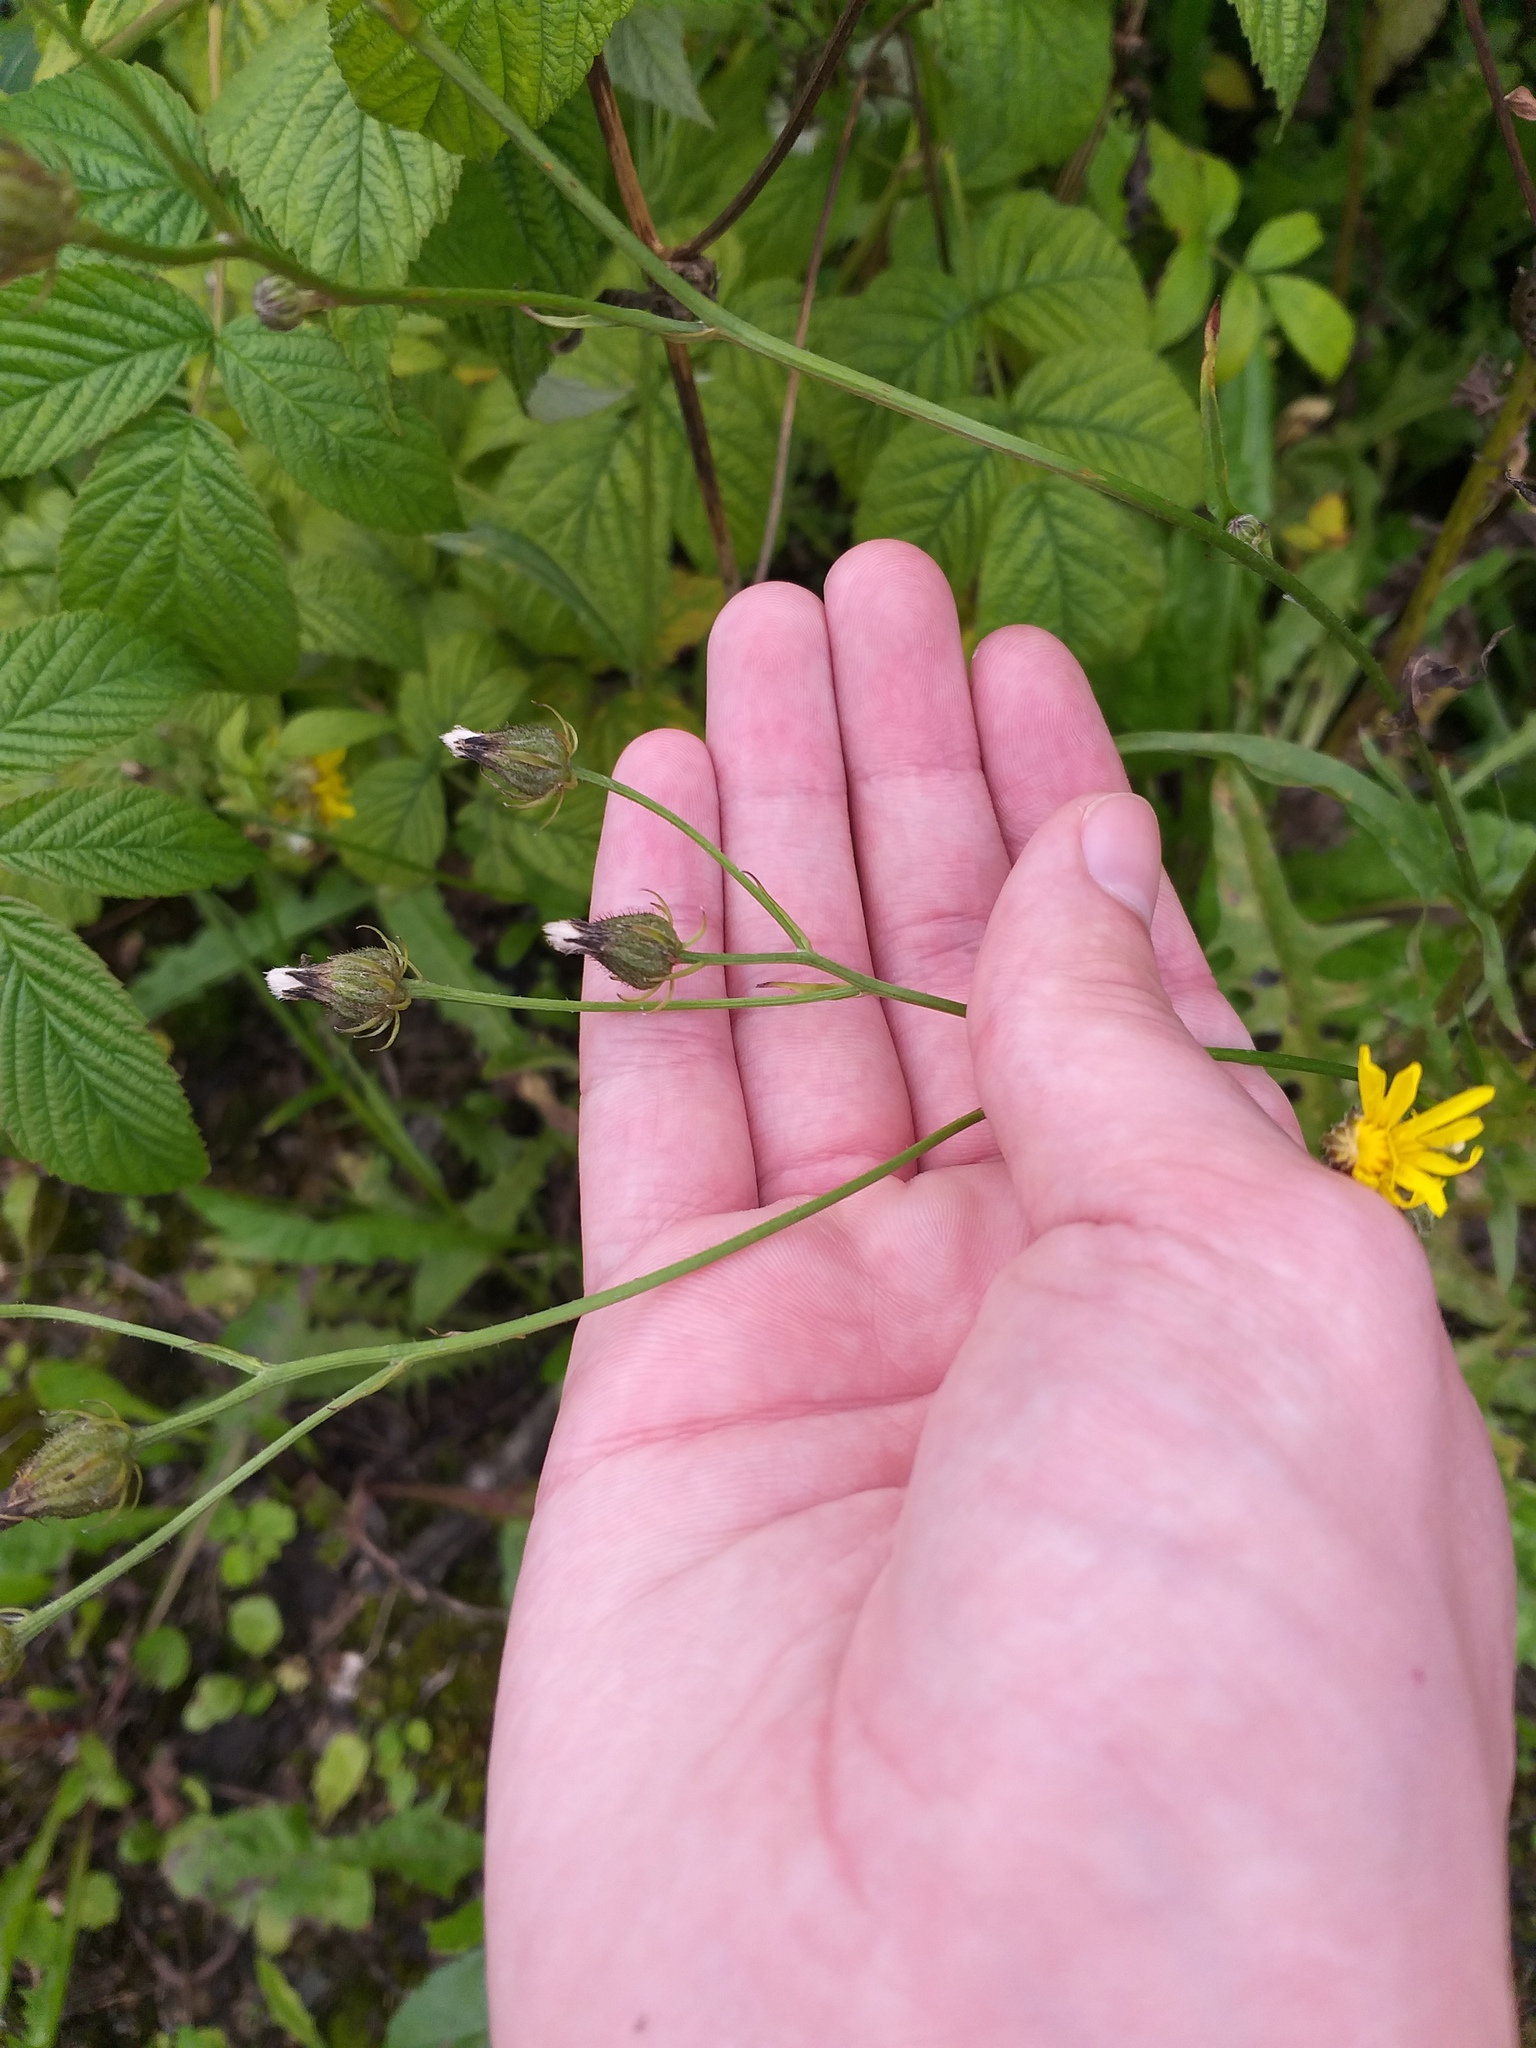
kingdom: Plantae
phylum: Tracheophyta
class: Magnoliopsida
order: Asterales
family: Asteraceae
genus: Crepis
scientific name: Crepis biennis
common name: Rough hawk's-beard
